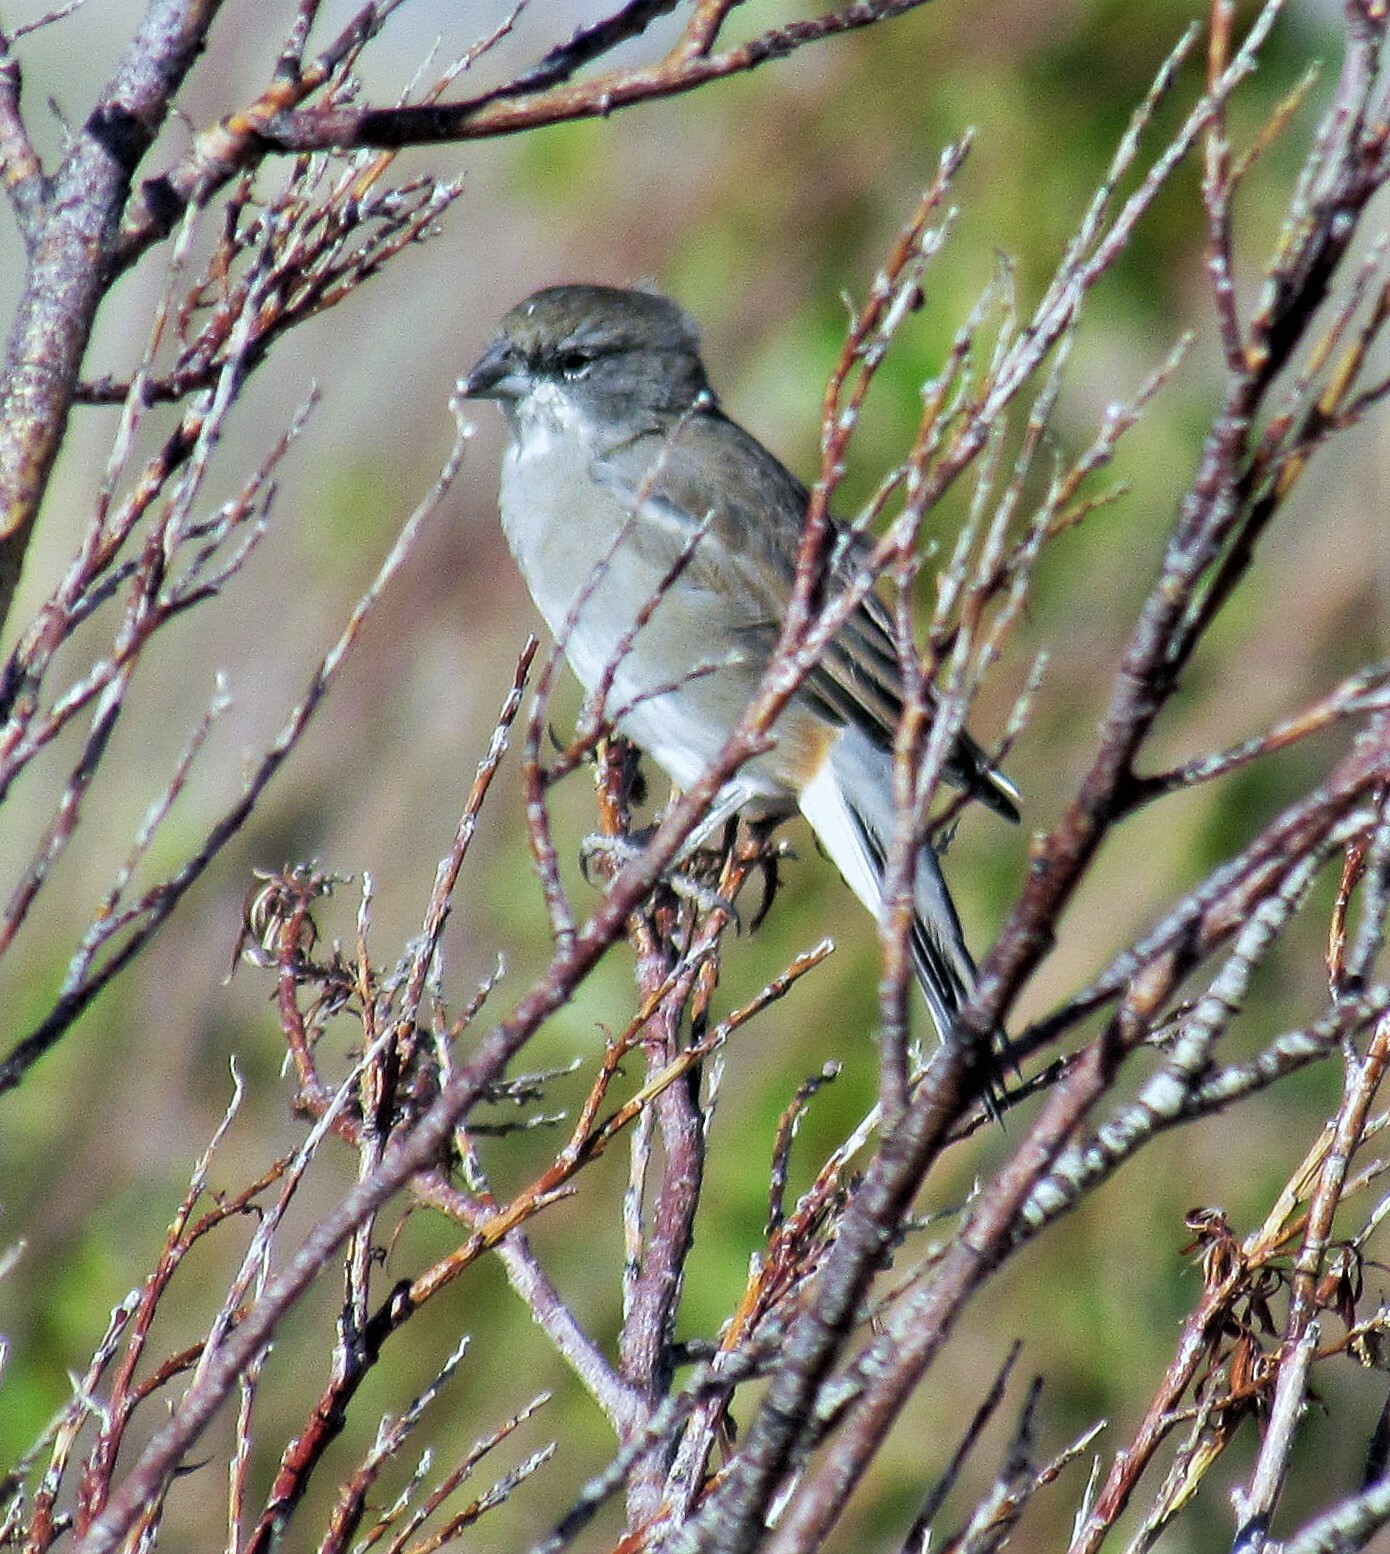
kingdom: Animalia
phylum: Chordata
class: Aves
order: Passeriformes
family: Thraupidae
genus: Diuca
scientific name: Diuca diuca
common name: Common diuca finch
